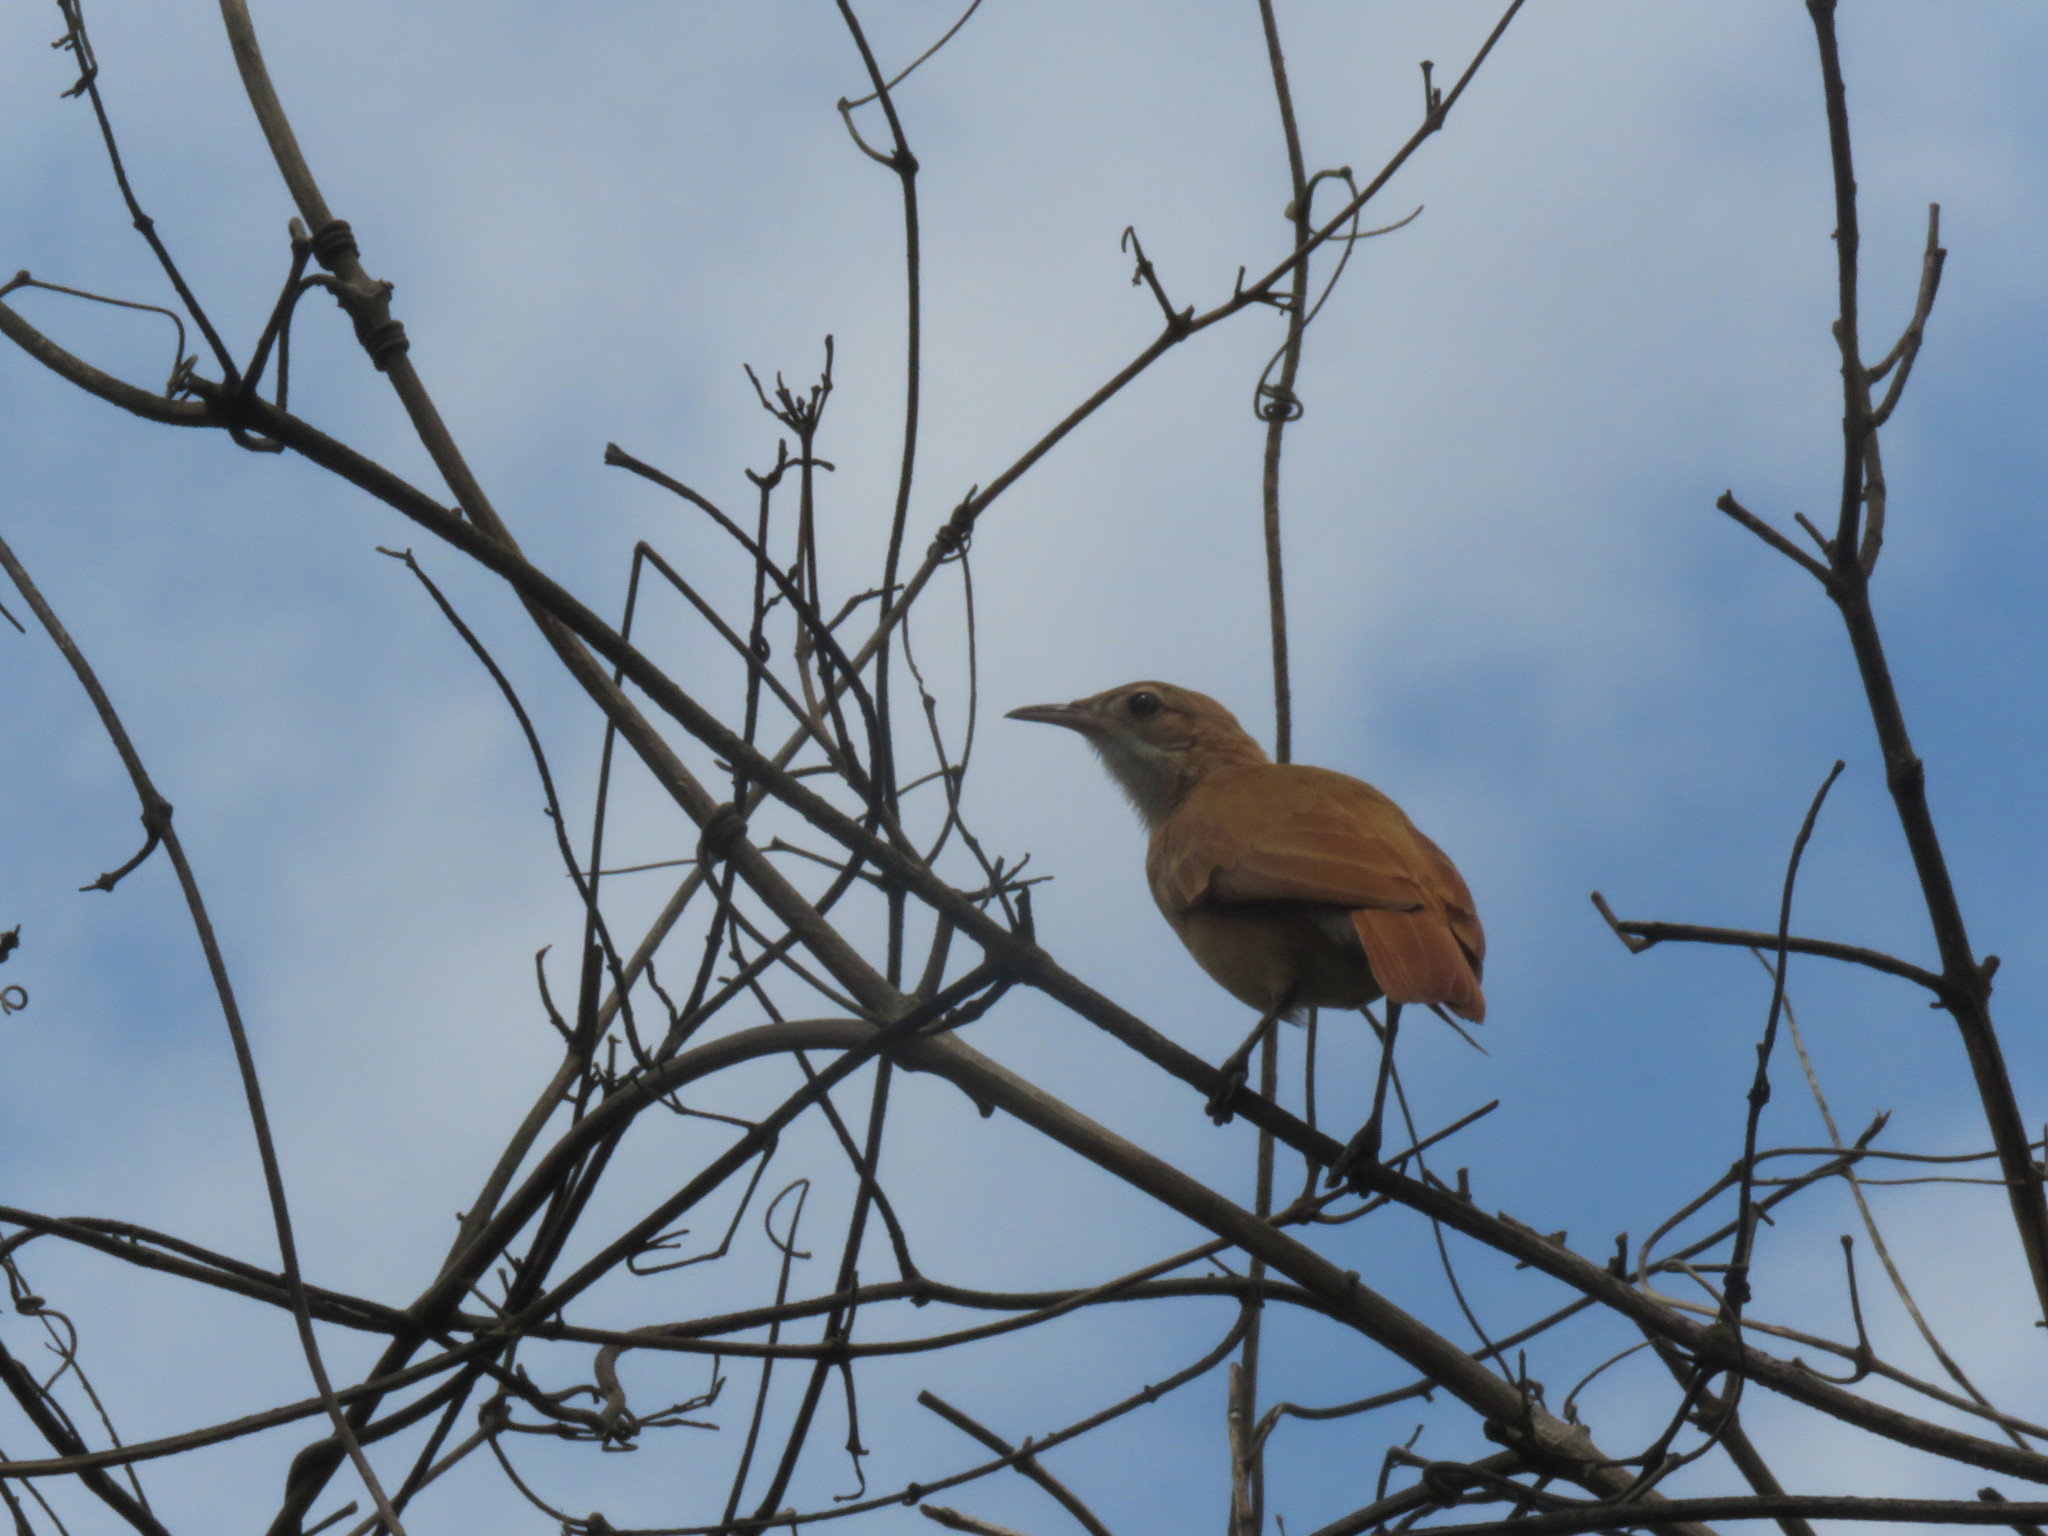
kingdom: Animalia
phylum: Chordata
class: Aves
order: Passeriformes
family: Furnariidae
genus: Furnarius
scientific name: Furnarius rufus
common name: Rufous hornero
